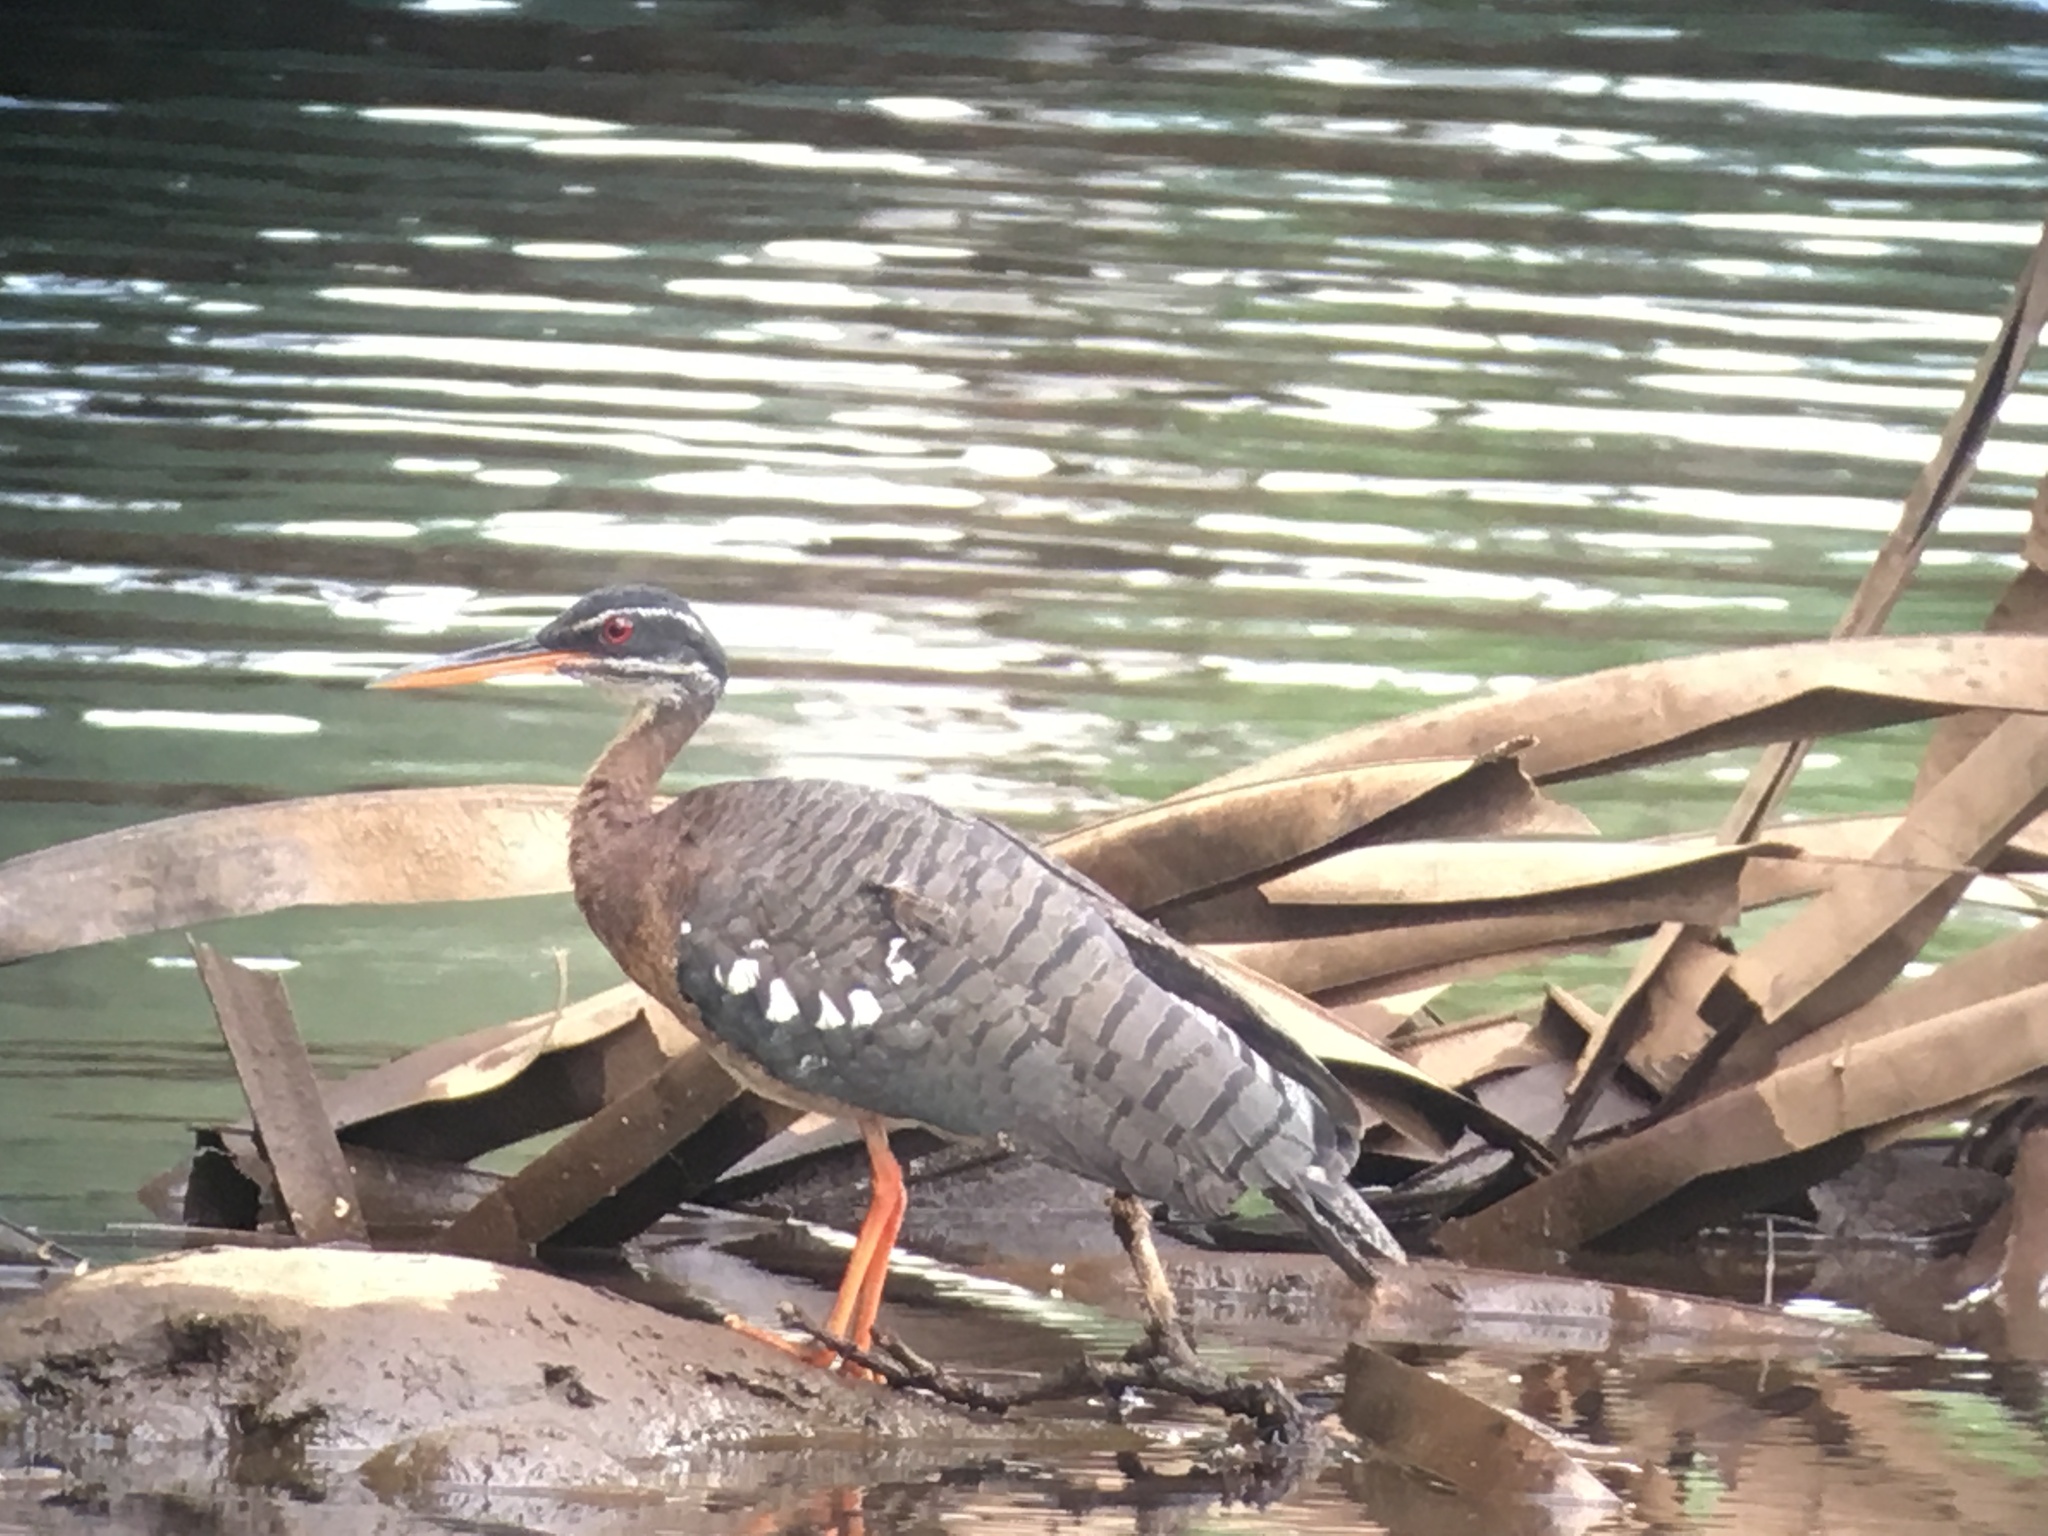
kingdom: Animalia
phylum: Chordata
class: Aves
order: Eurypygiformes
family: Eurypygidae
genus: Eurypyga
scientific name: Eurypyga helias
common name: Sunbittern
